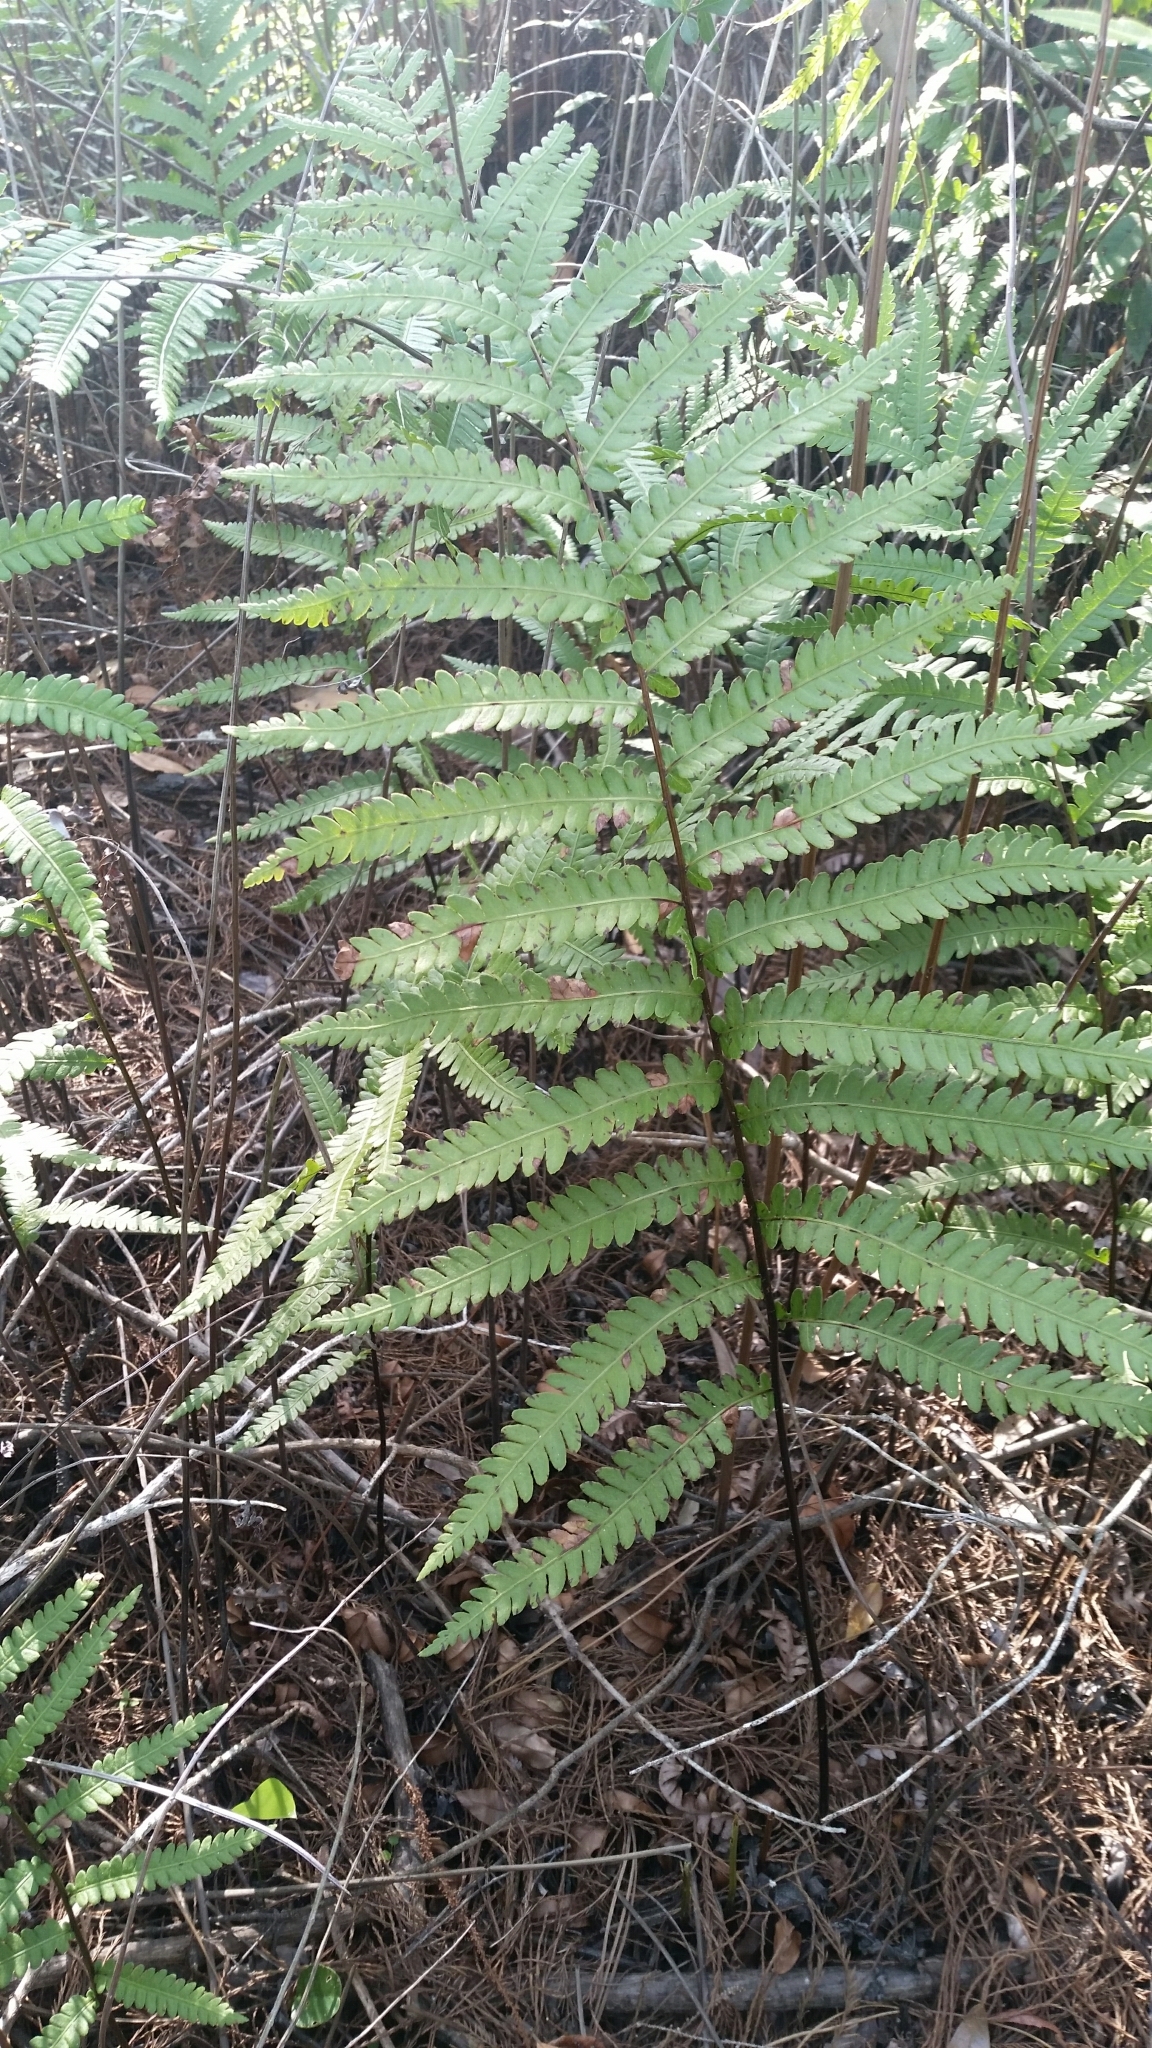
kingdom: Plantae
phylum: Tracheophyta
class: Polypodiopsida
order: Polypodiales
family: Blechnaceae
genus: Anchistea
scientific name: Anchistea virginica
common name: Virginia chain fern
